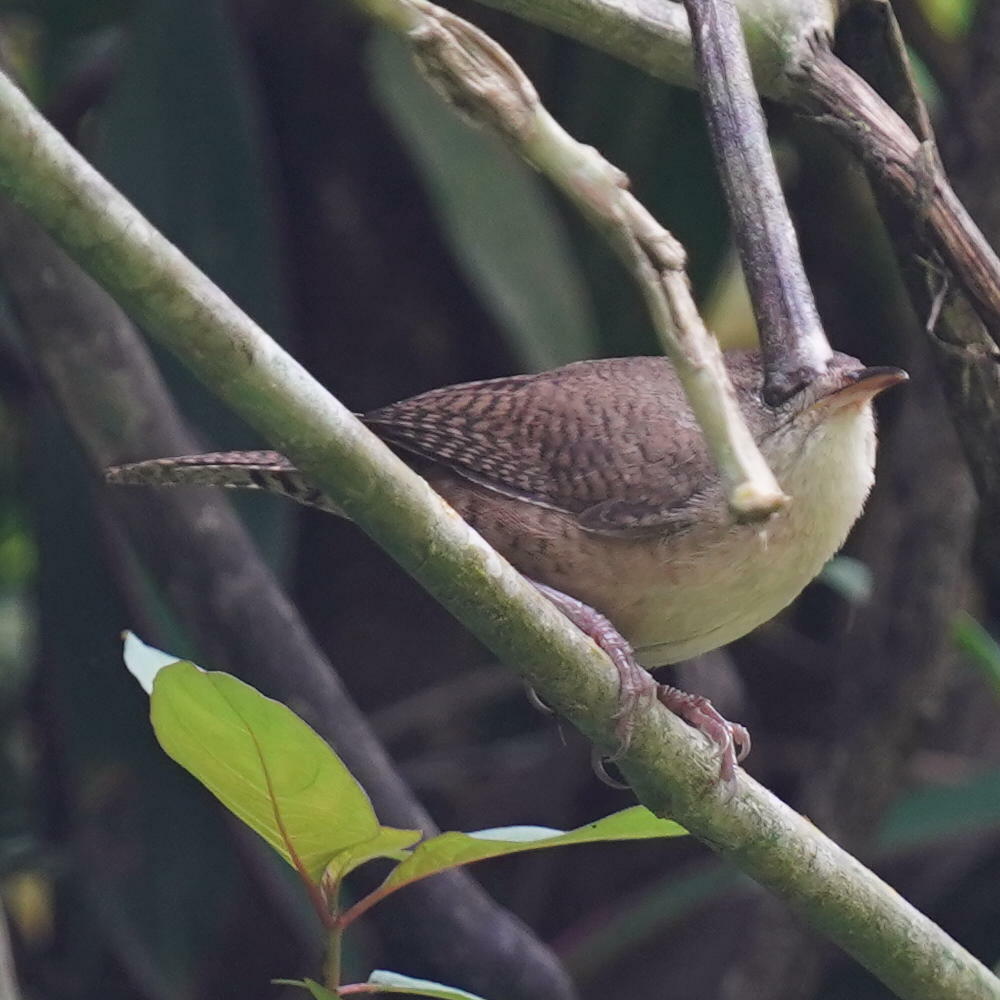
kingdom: Animalia
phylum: Chordata
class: Aves
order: Passeriformes
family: Troglodytidae
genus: Troglodytes
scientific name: Troglodytes aedon
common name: House wren
